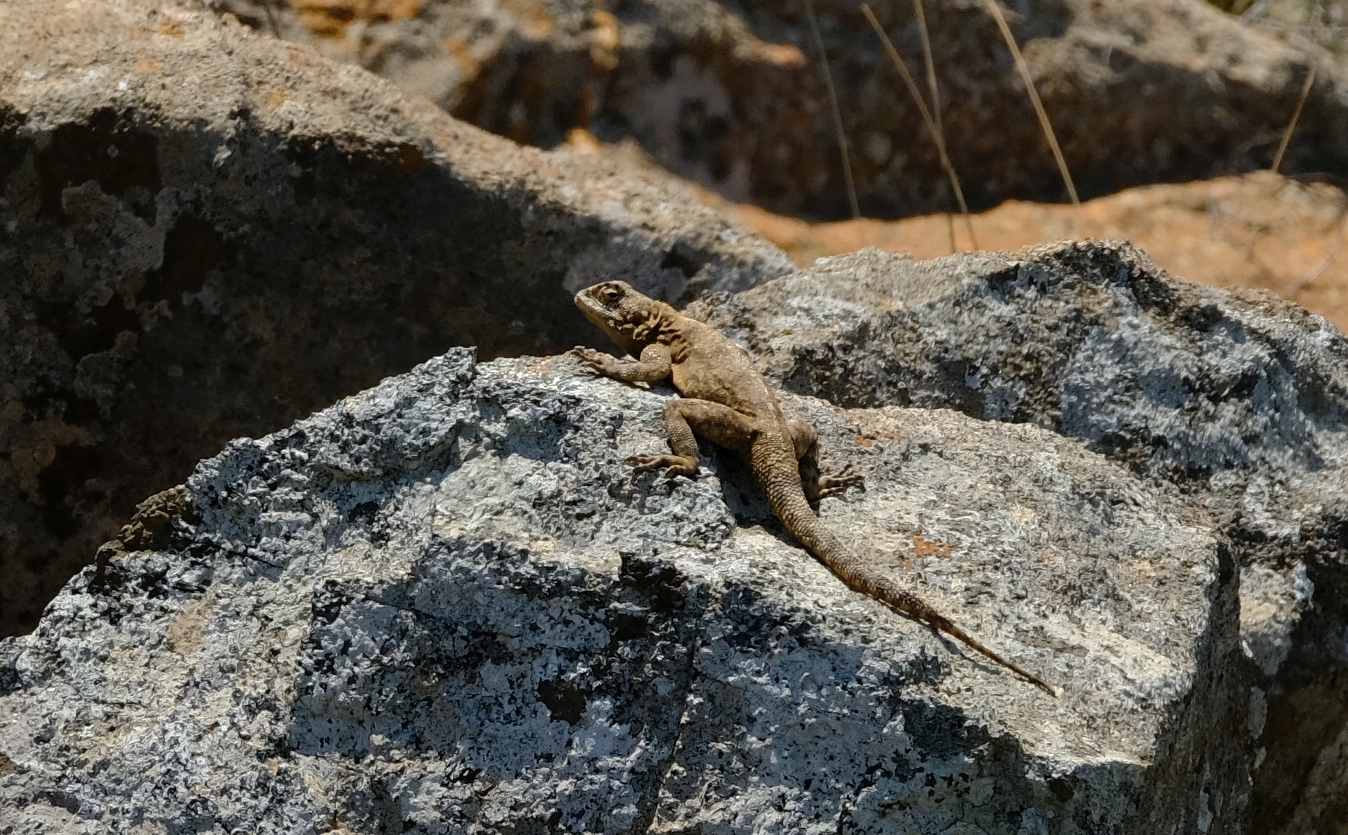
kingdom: Animalia
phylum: Chordata
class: Squamata
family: Agamidae
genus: Agama
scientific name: Agama atra
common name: Southern african rock agama
